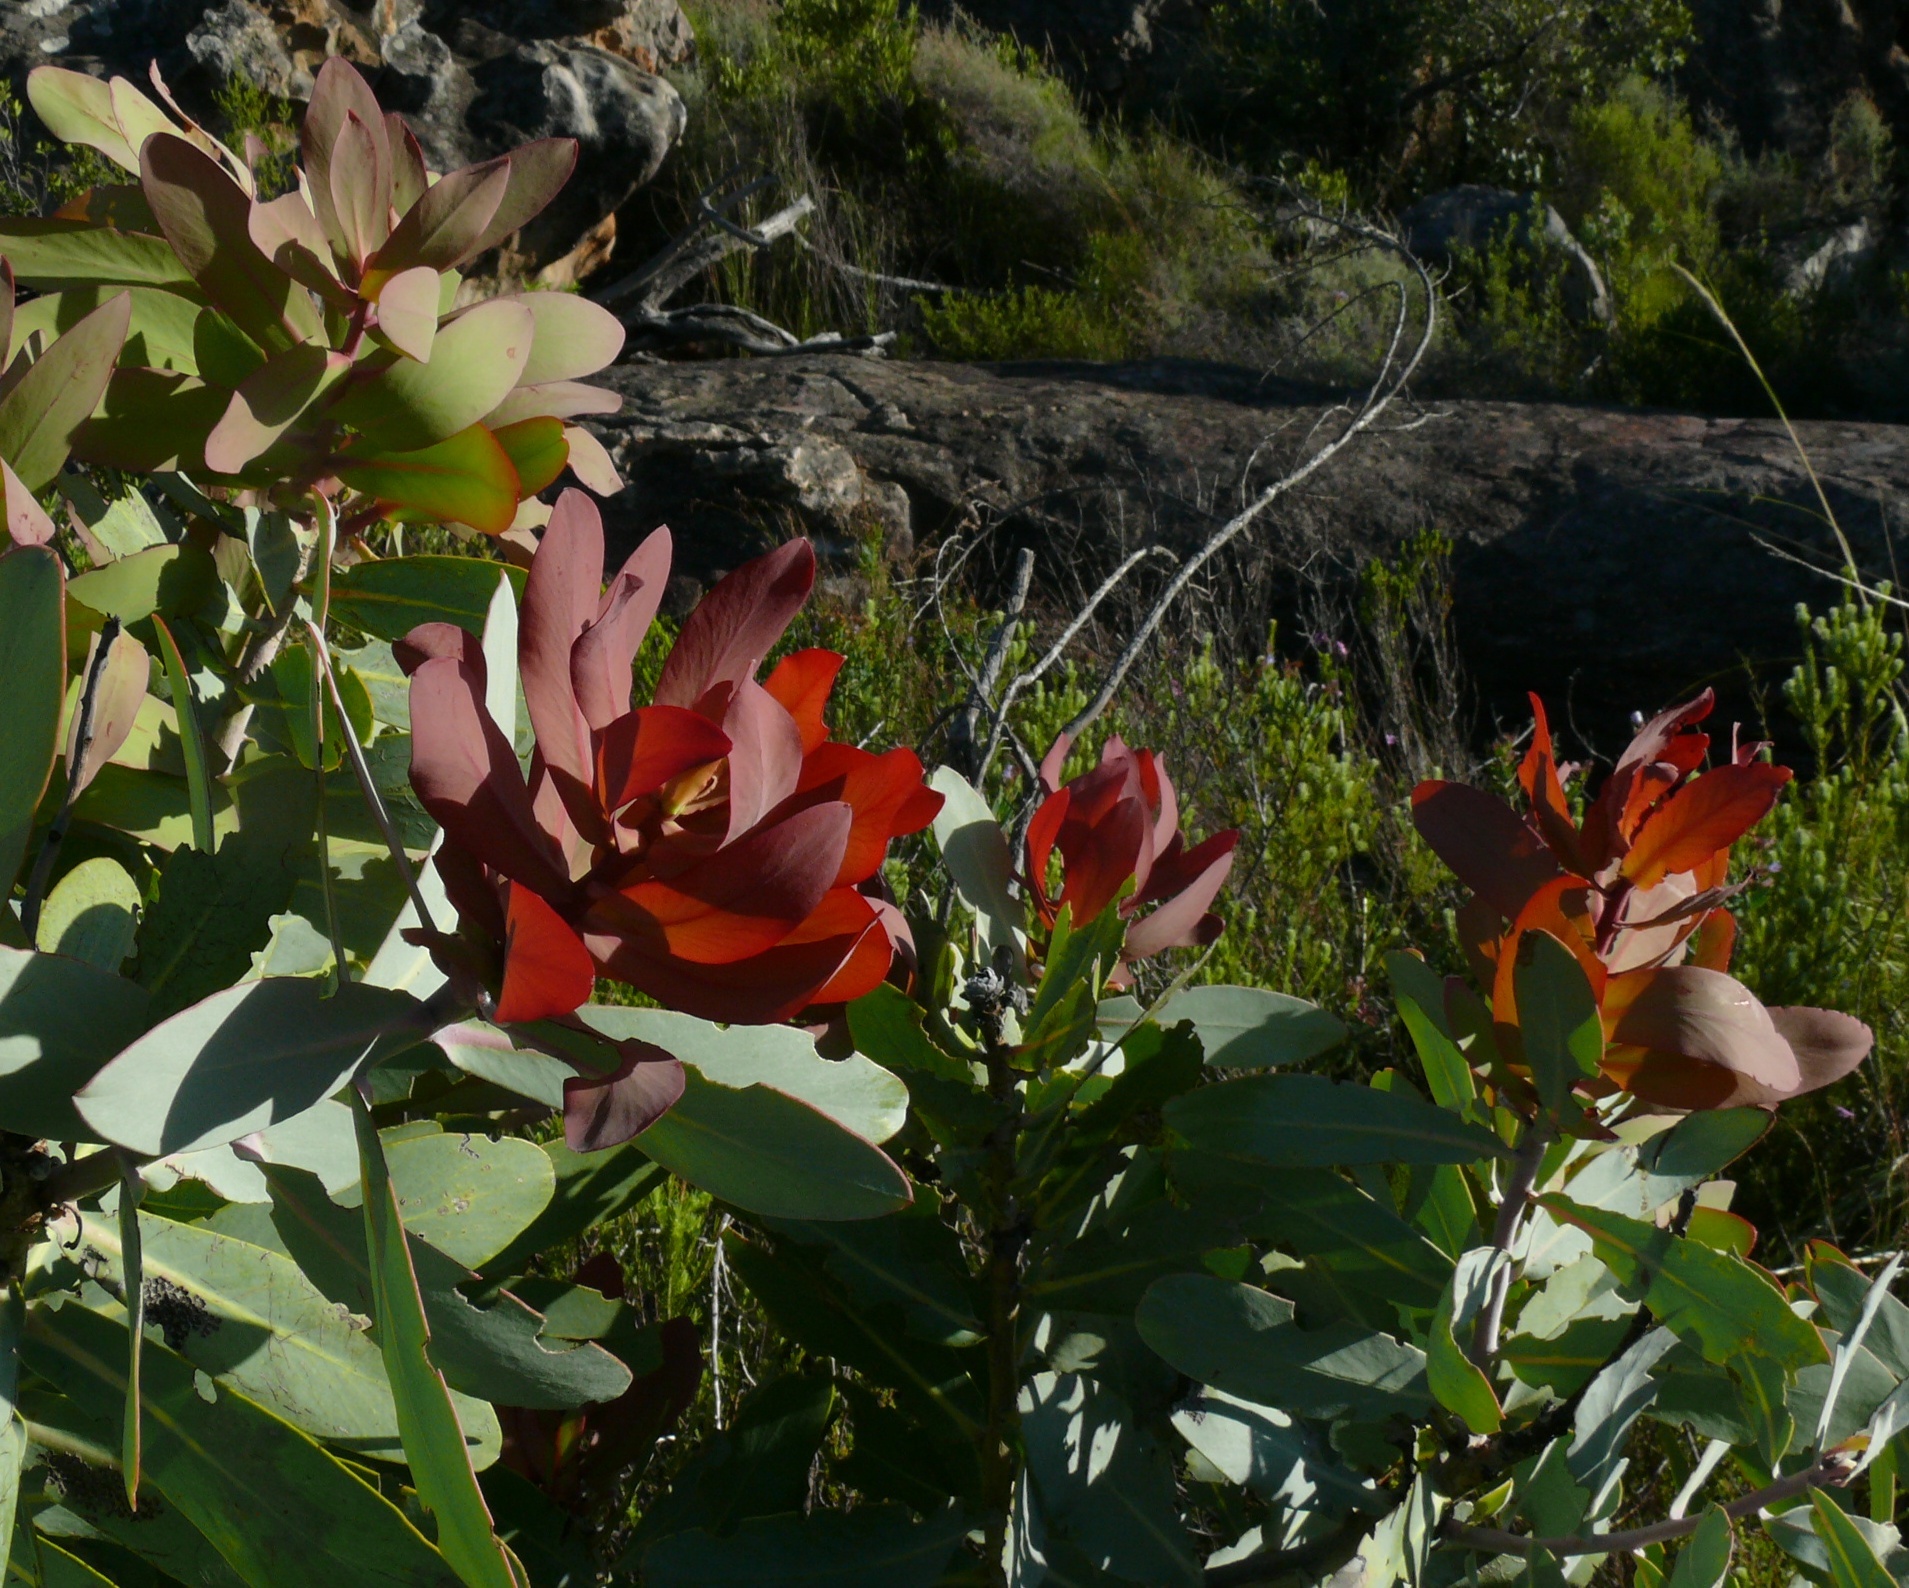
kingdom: Plantae
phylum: Tracheophyta
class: Magnoliopsida
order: Proteales
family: Proteaceae
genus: Protea
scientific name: Protea nitida
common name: Tree protea
